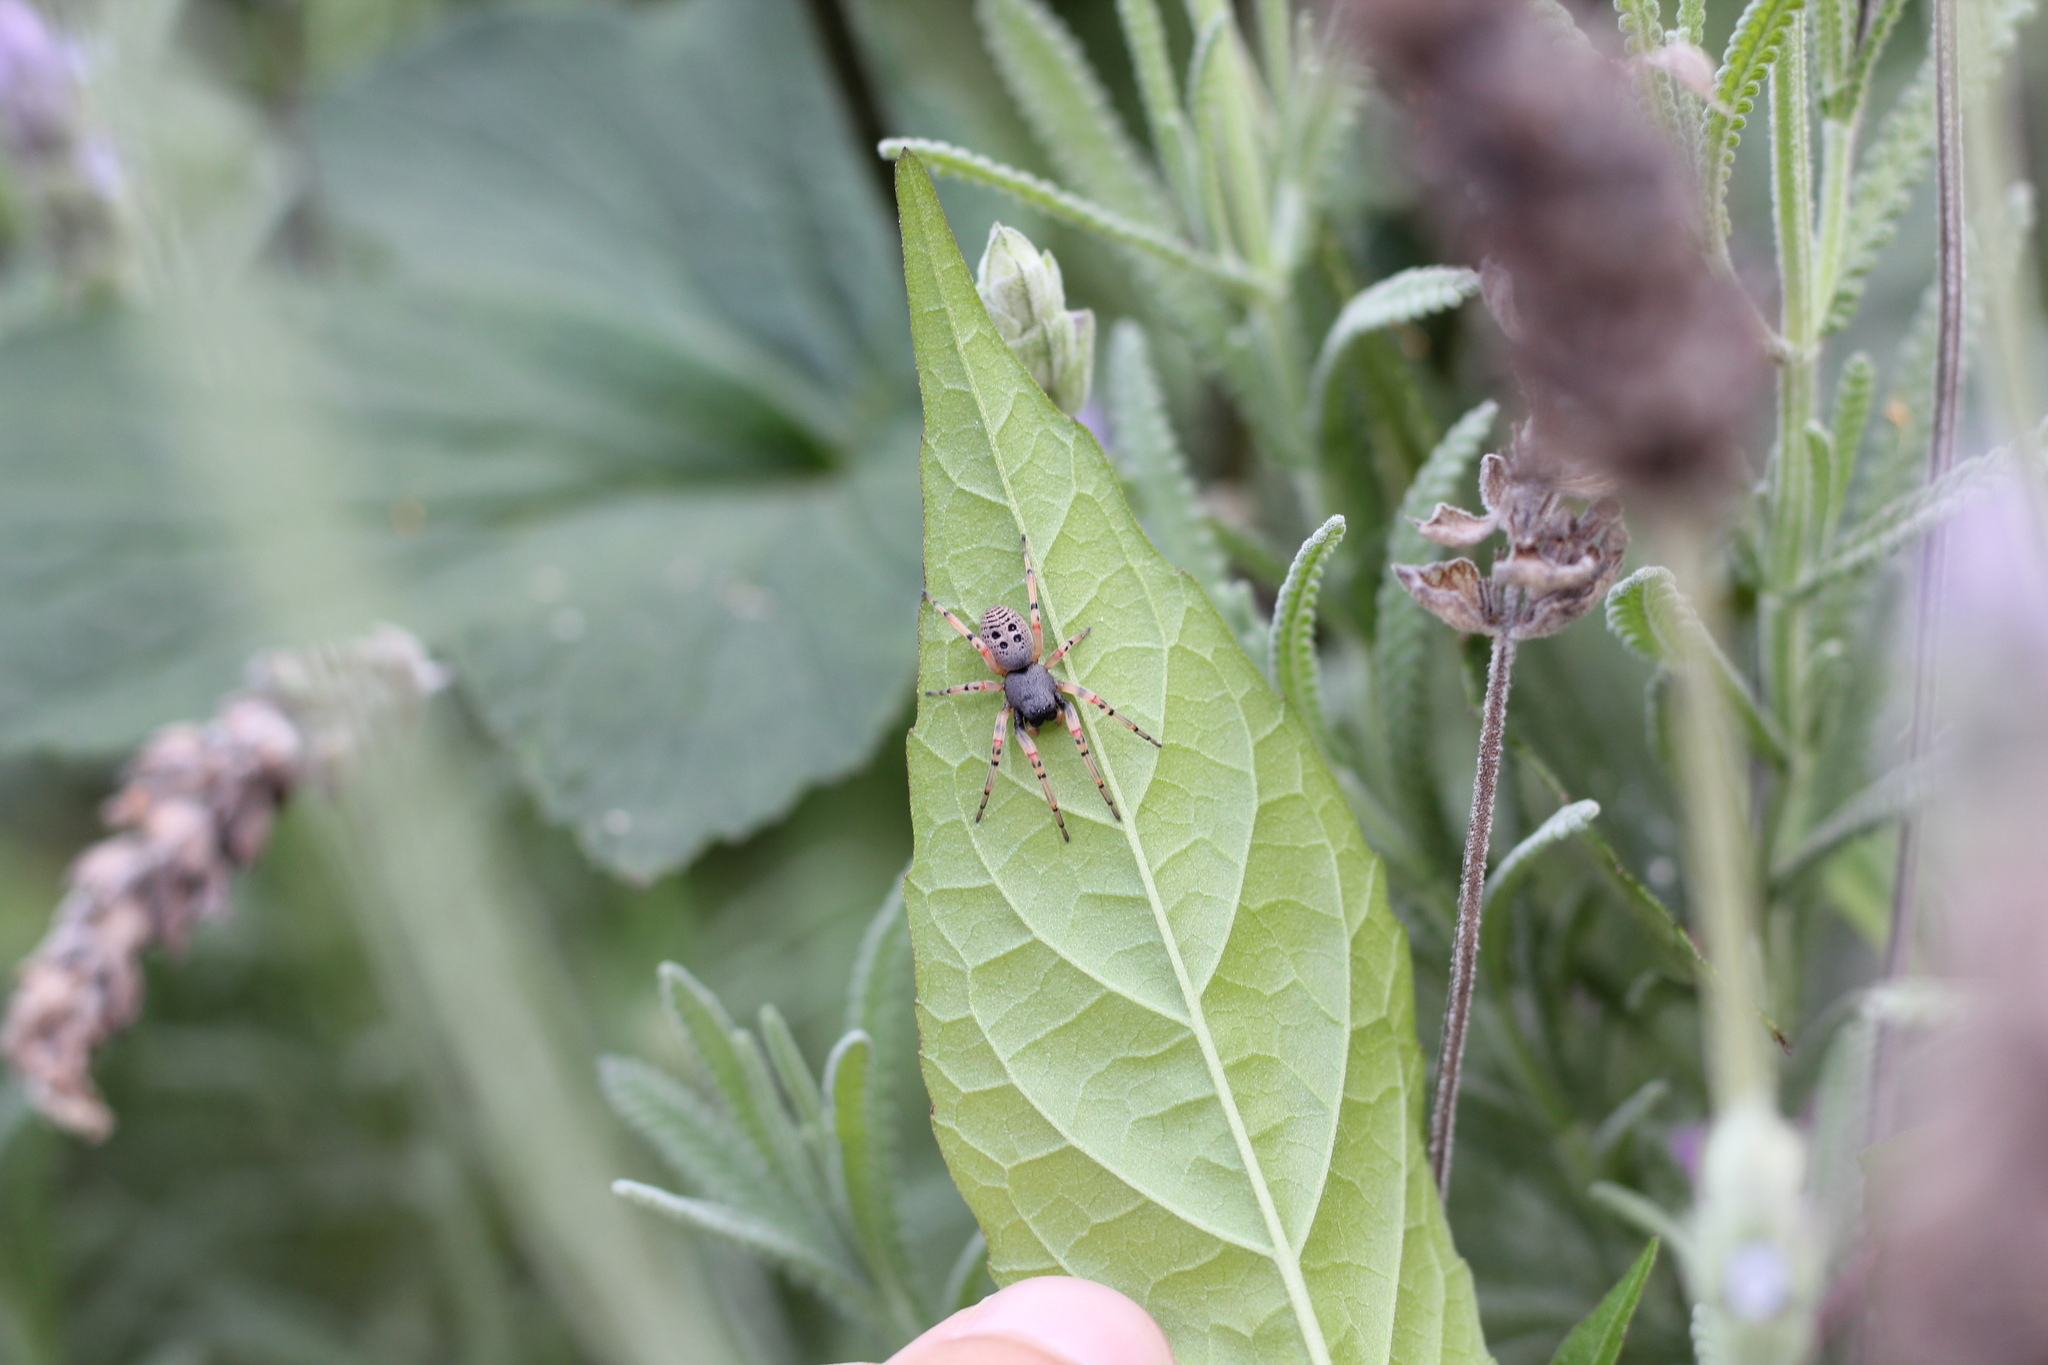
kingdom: Animalia
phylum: Arthropoda
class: Arachnida
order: Araneae
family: Trachelidae
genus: Trachelopachys
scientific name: Trachelopachys
